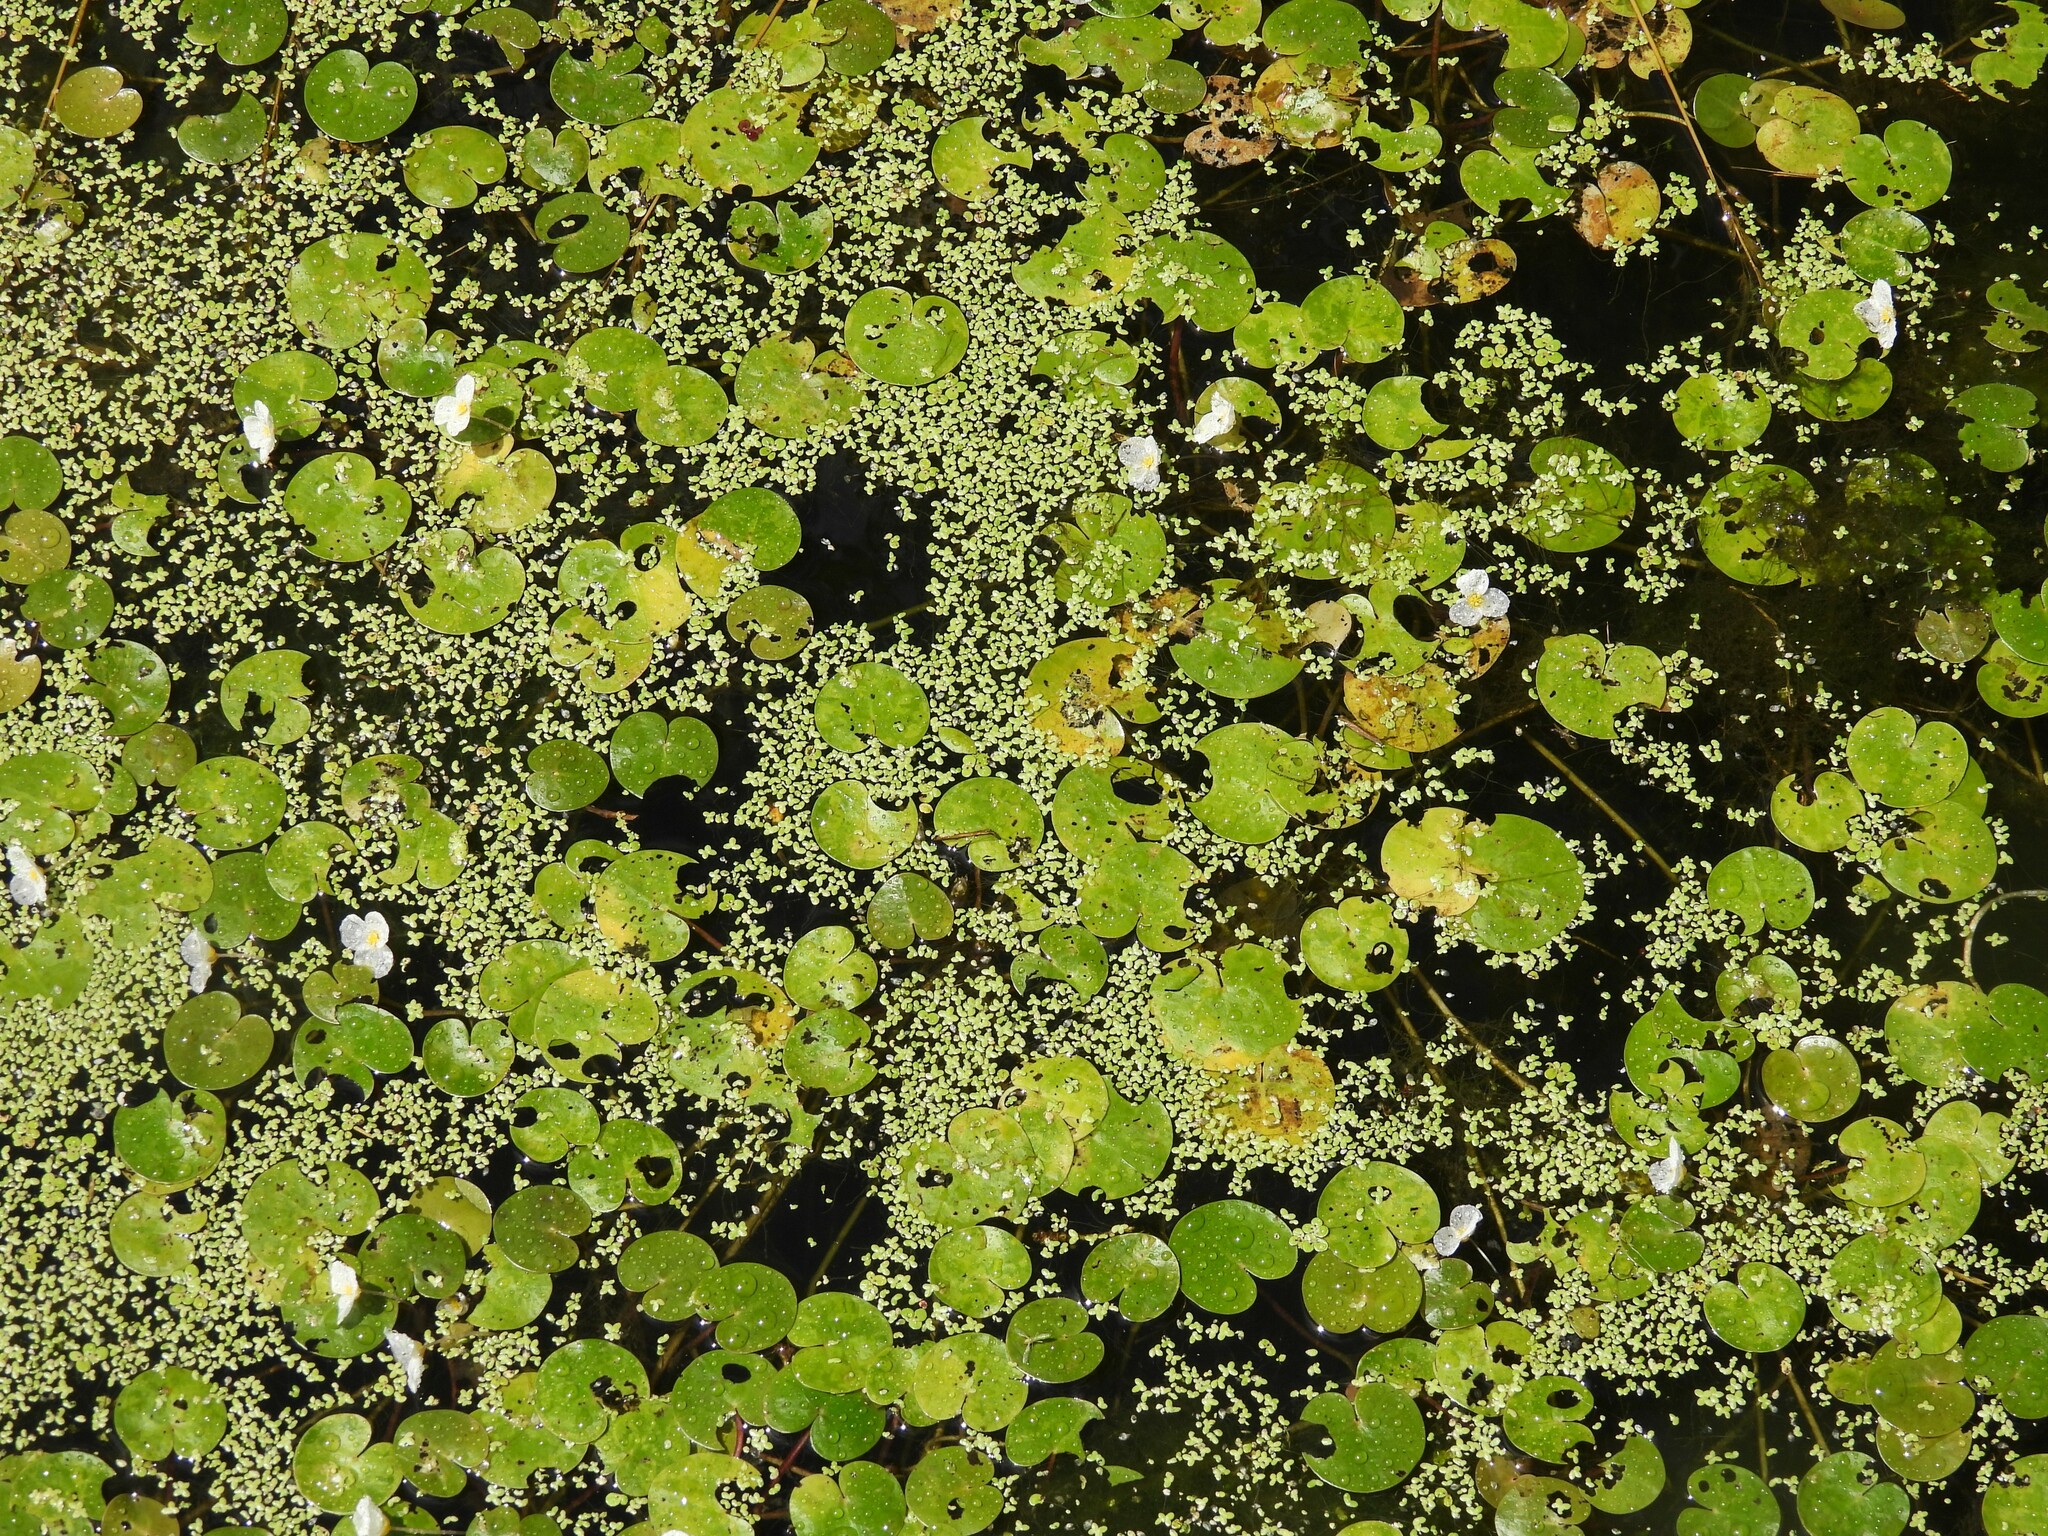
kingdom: Plantae
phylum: Tracheophyta
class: Liliopsida
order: Alismatales
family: Hydrocharitaceae
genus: Hydrocharis
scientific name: Hydrocharis morsus-ranae
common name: Frogbit
